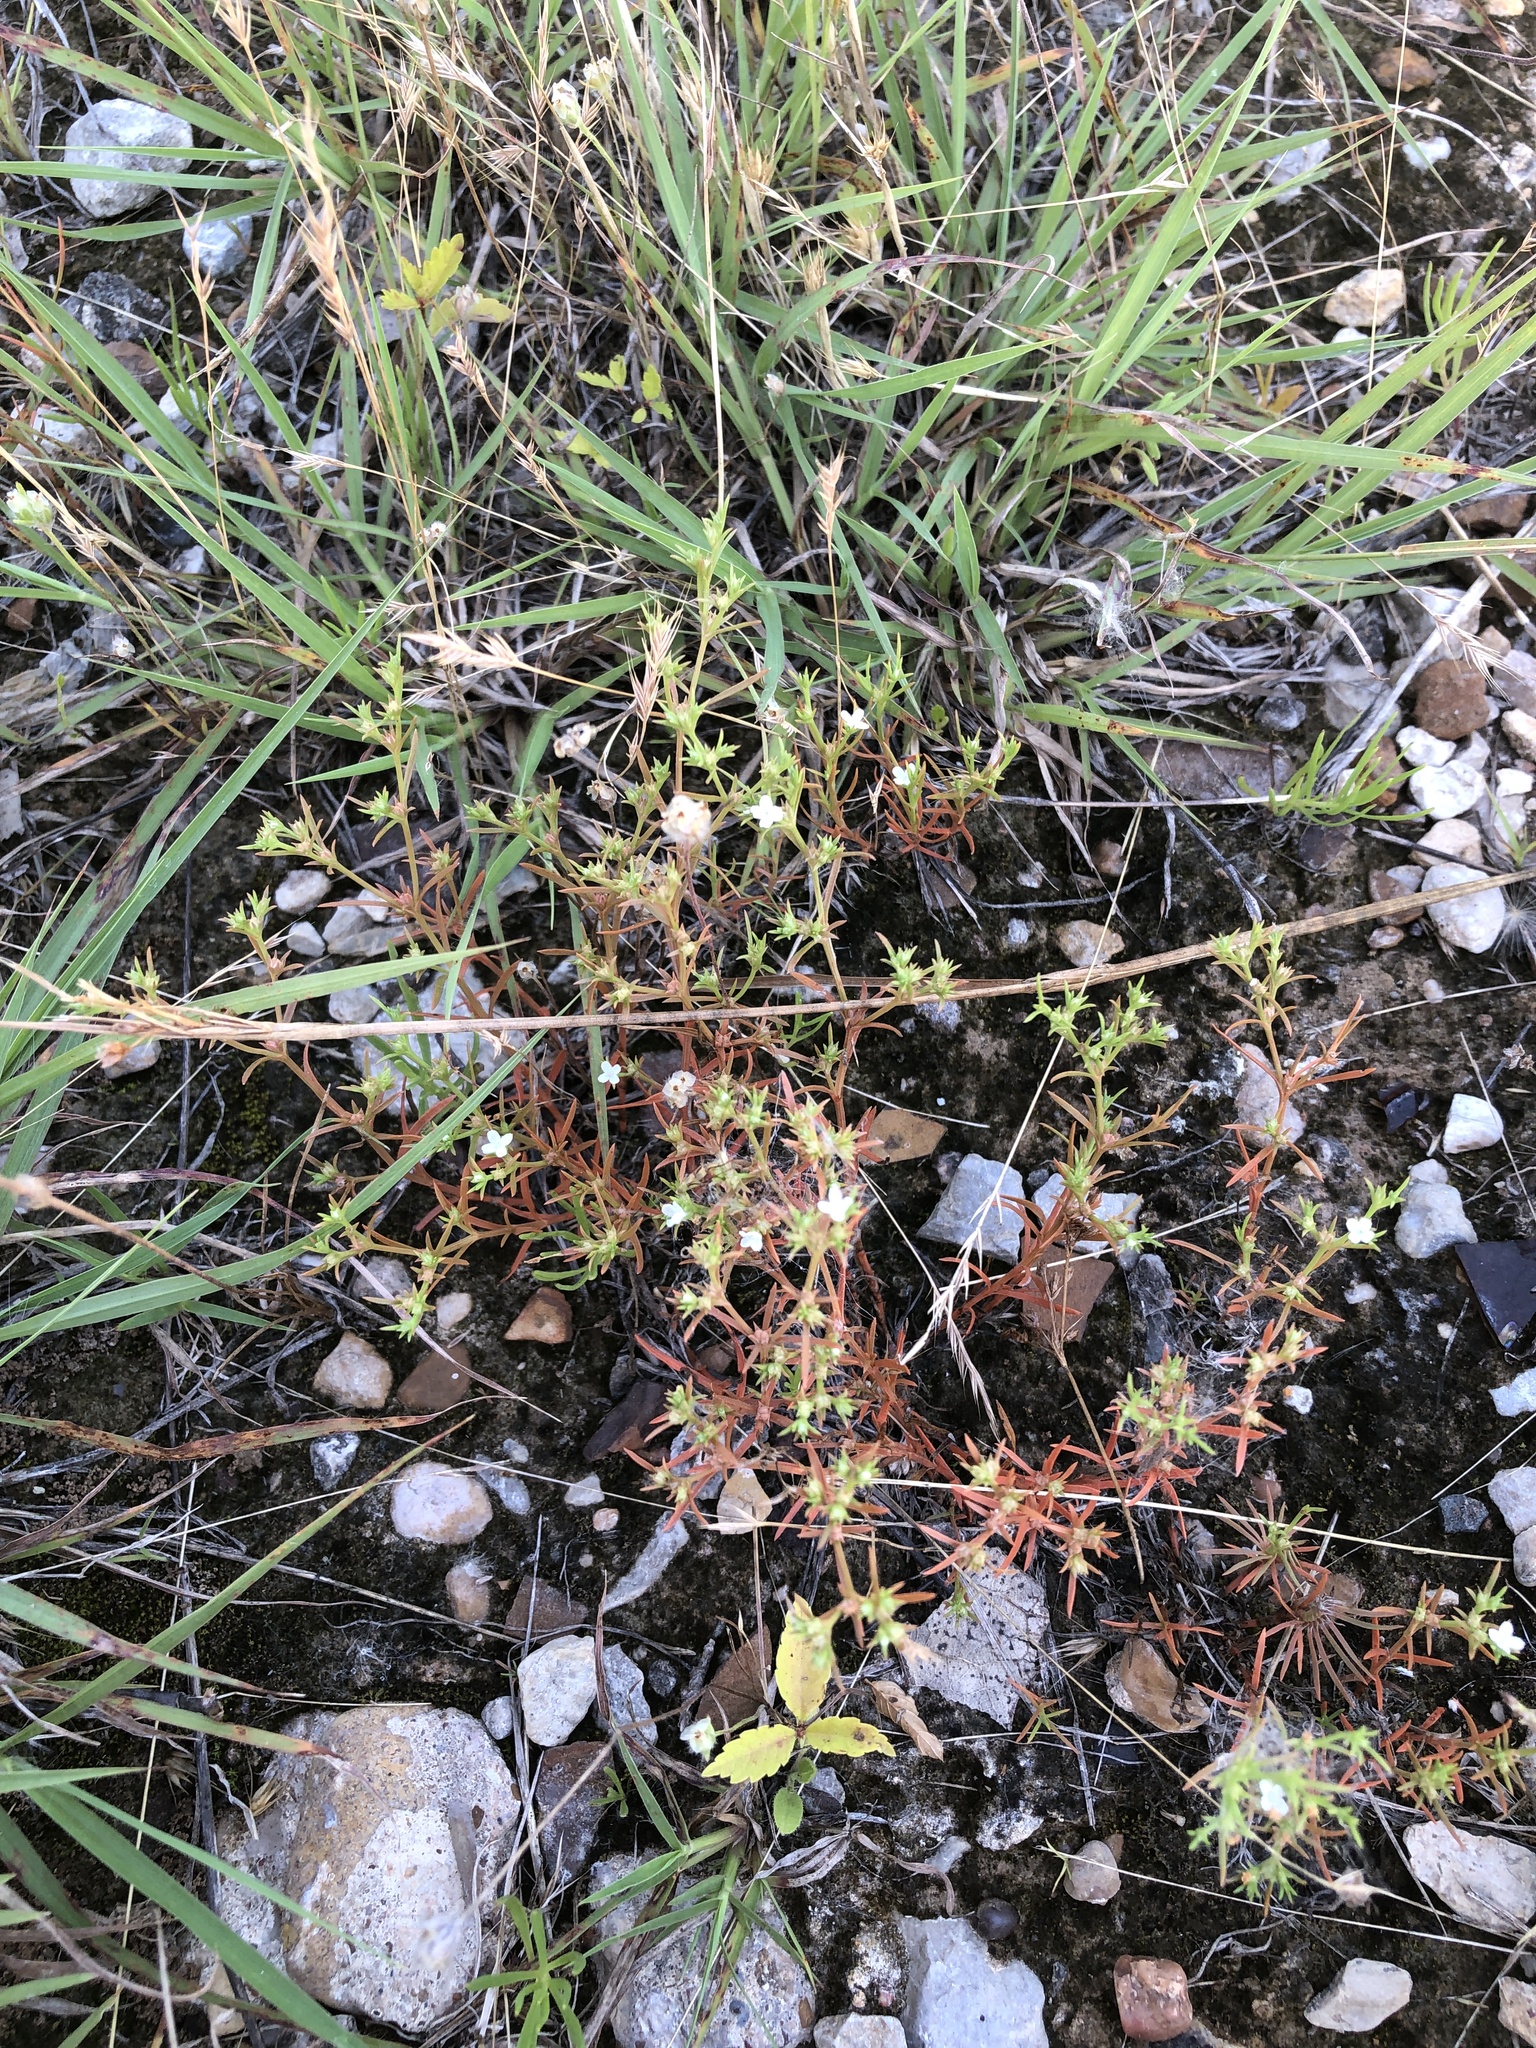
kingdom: Plantae
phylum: Tracheophyta
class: Magnoliopsida
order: Lamiales
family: Tetrachondraceae
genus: Polypremum
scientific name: Polypremum procumbens
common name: Juniper-leaf
